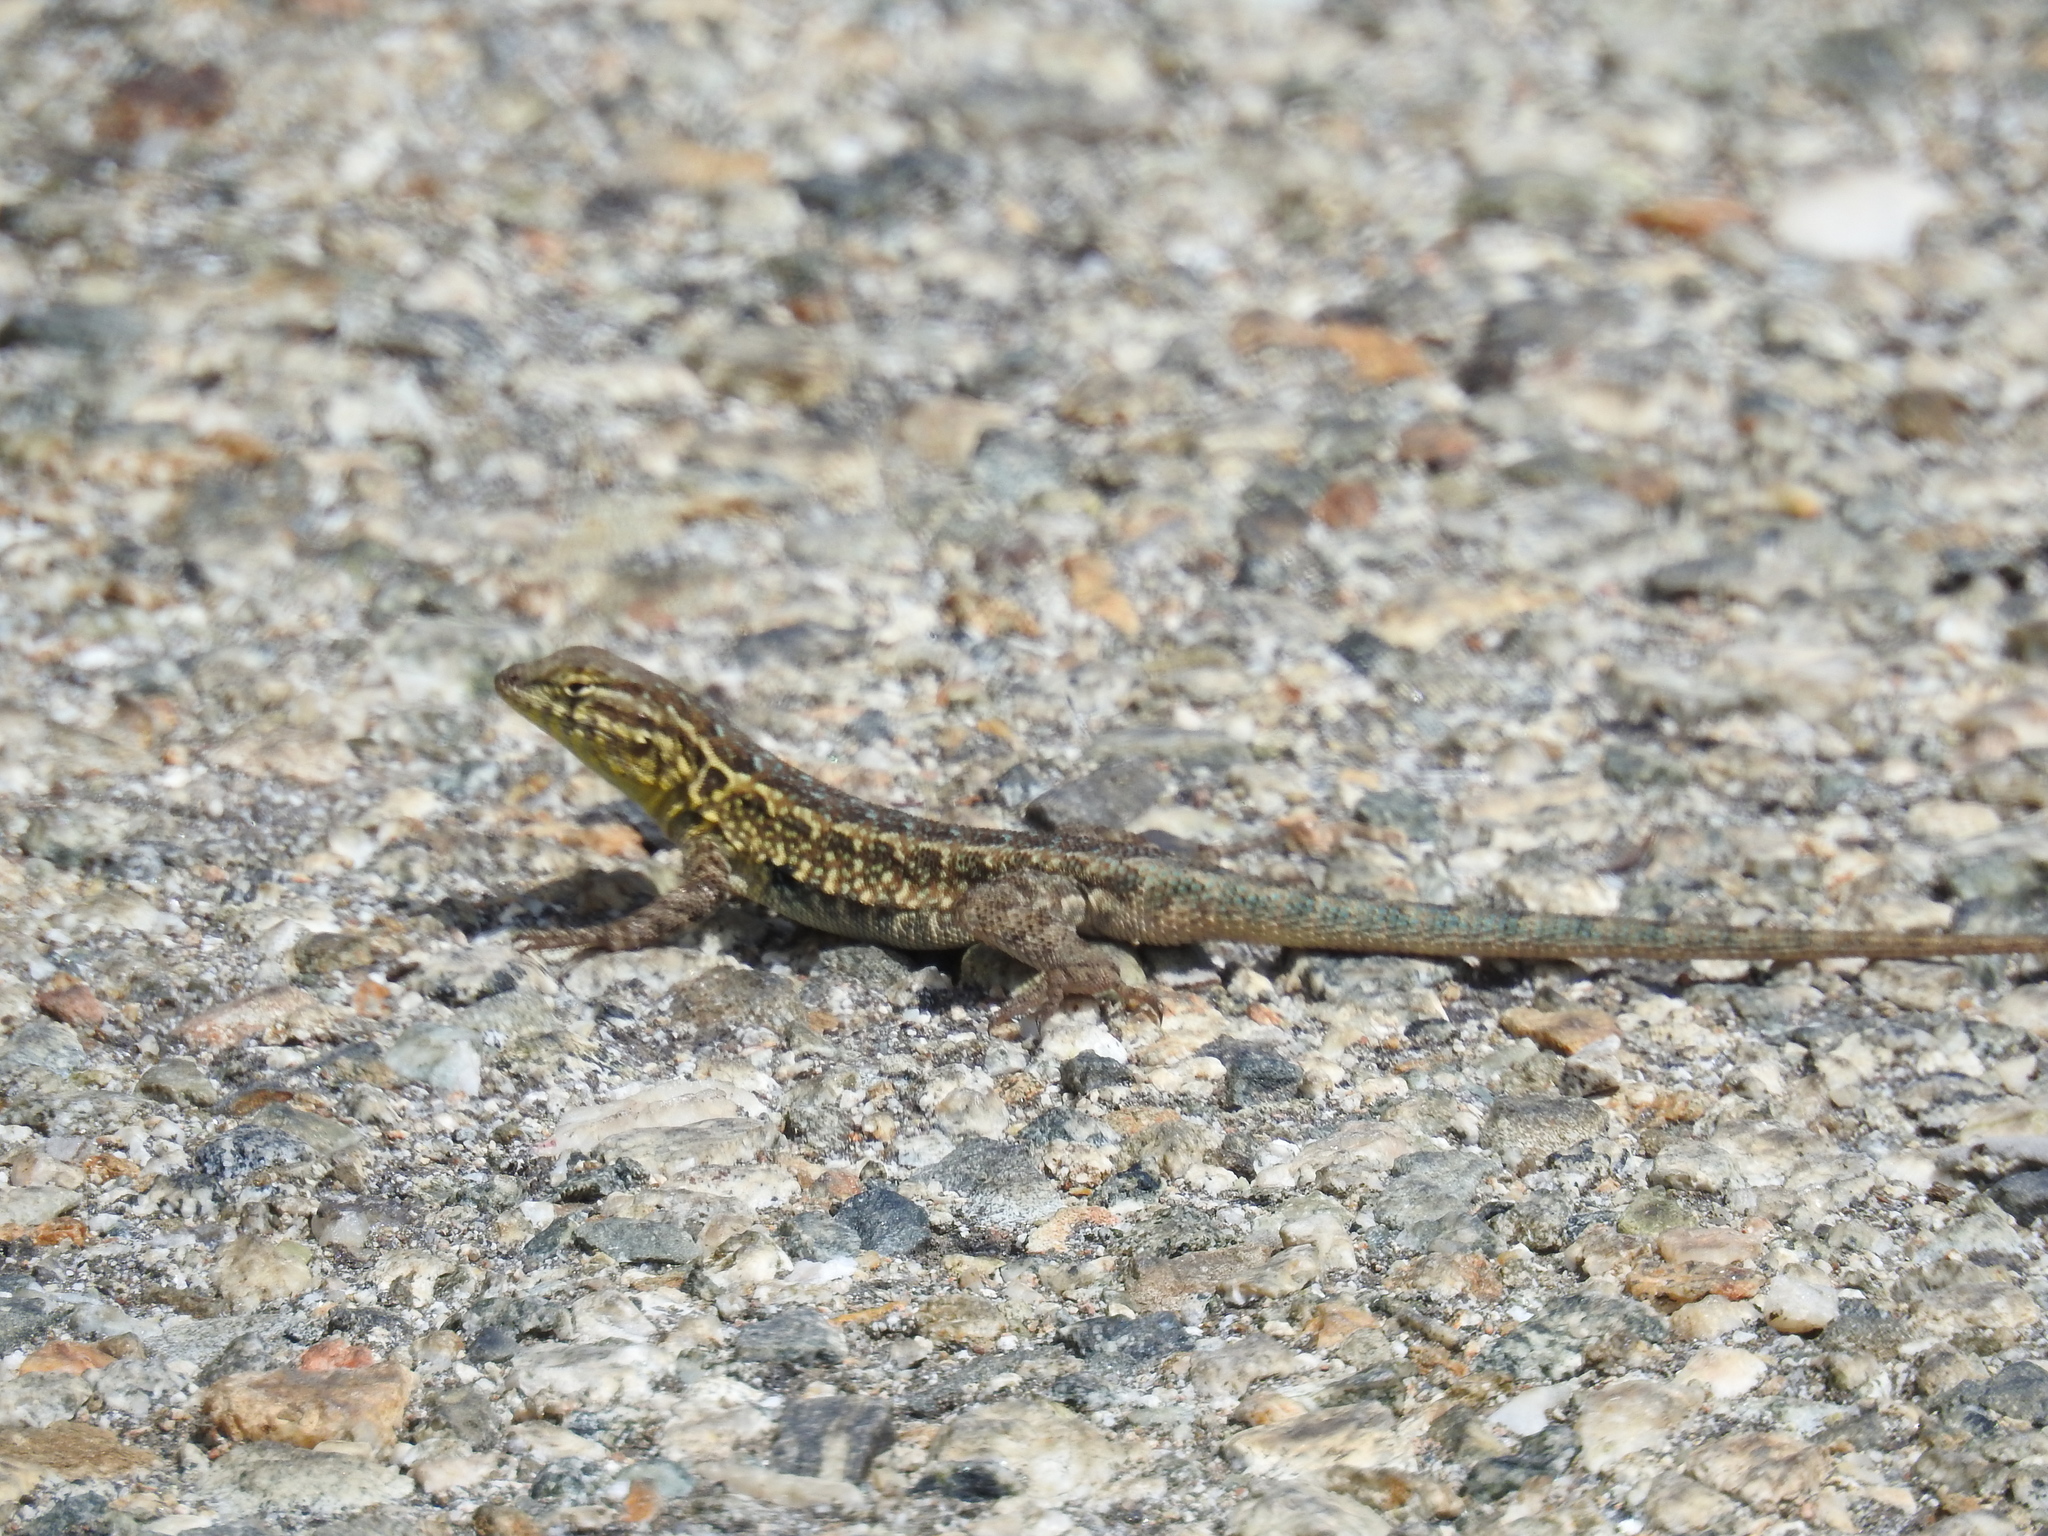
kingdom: Animalia
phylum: Chordata
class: Squamata
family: Phrynosomatidae
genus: Uta
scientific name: Uta stansburiana
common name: Side-blotched lizard
